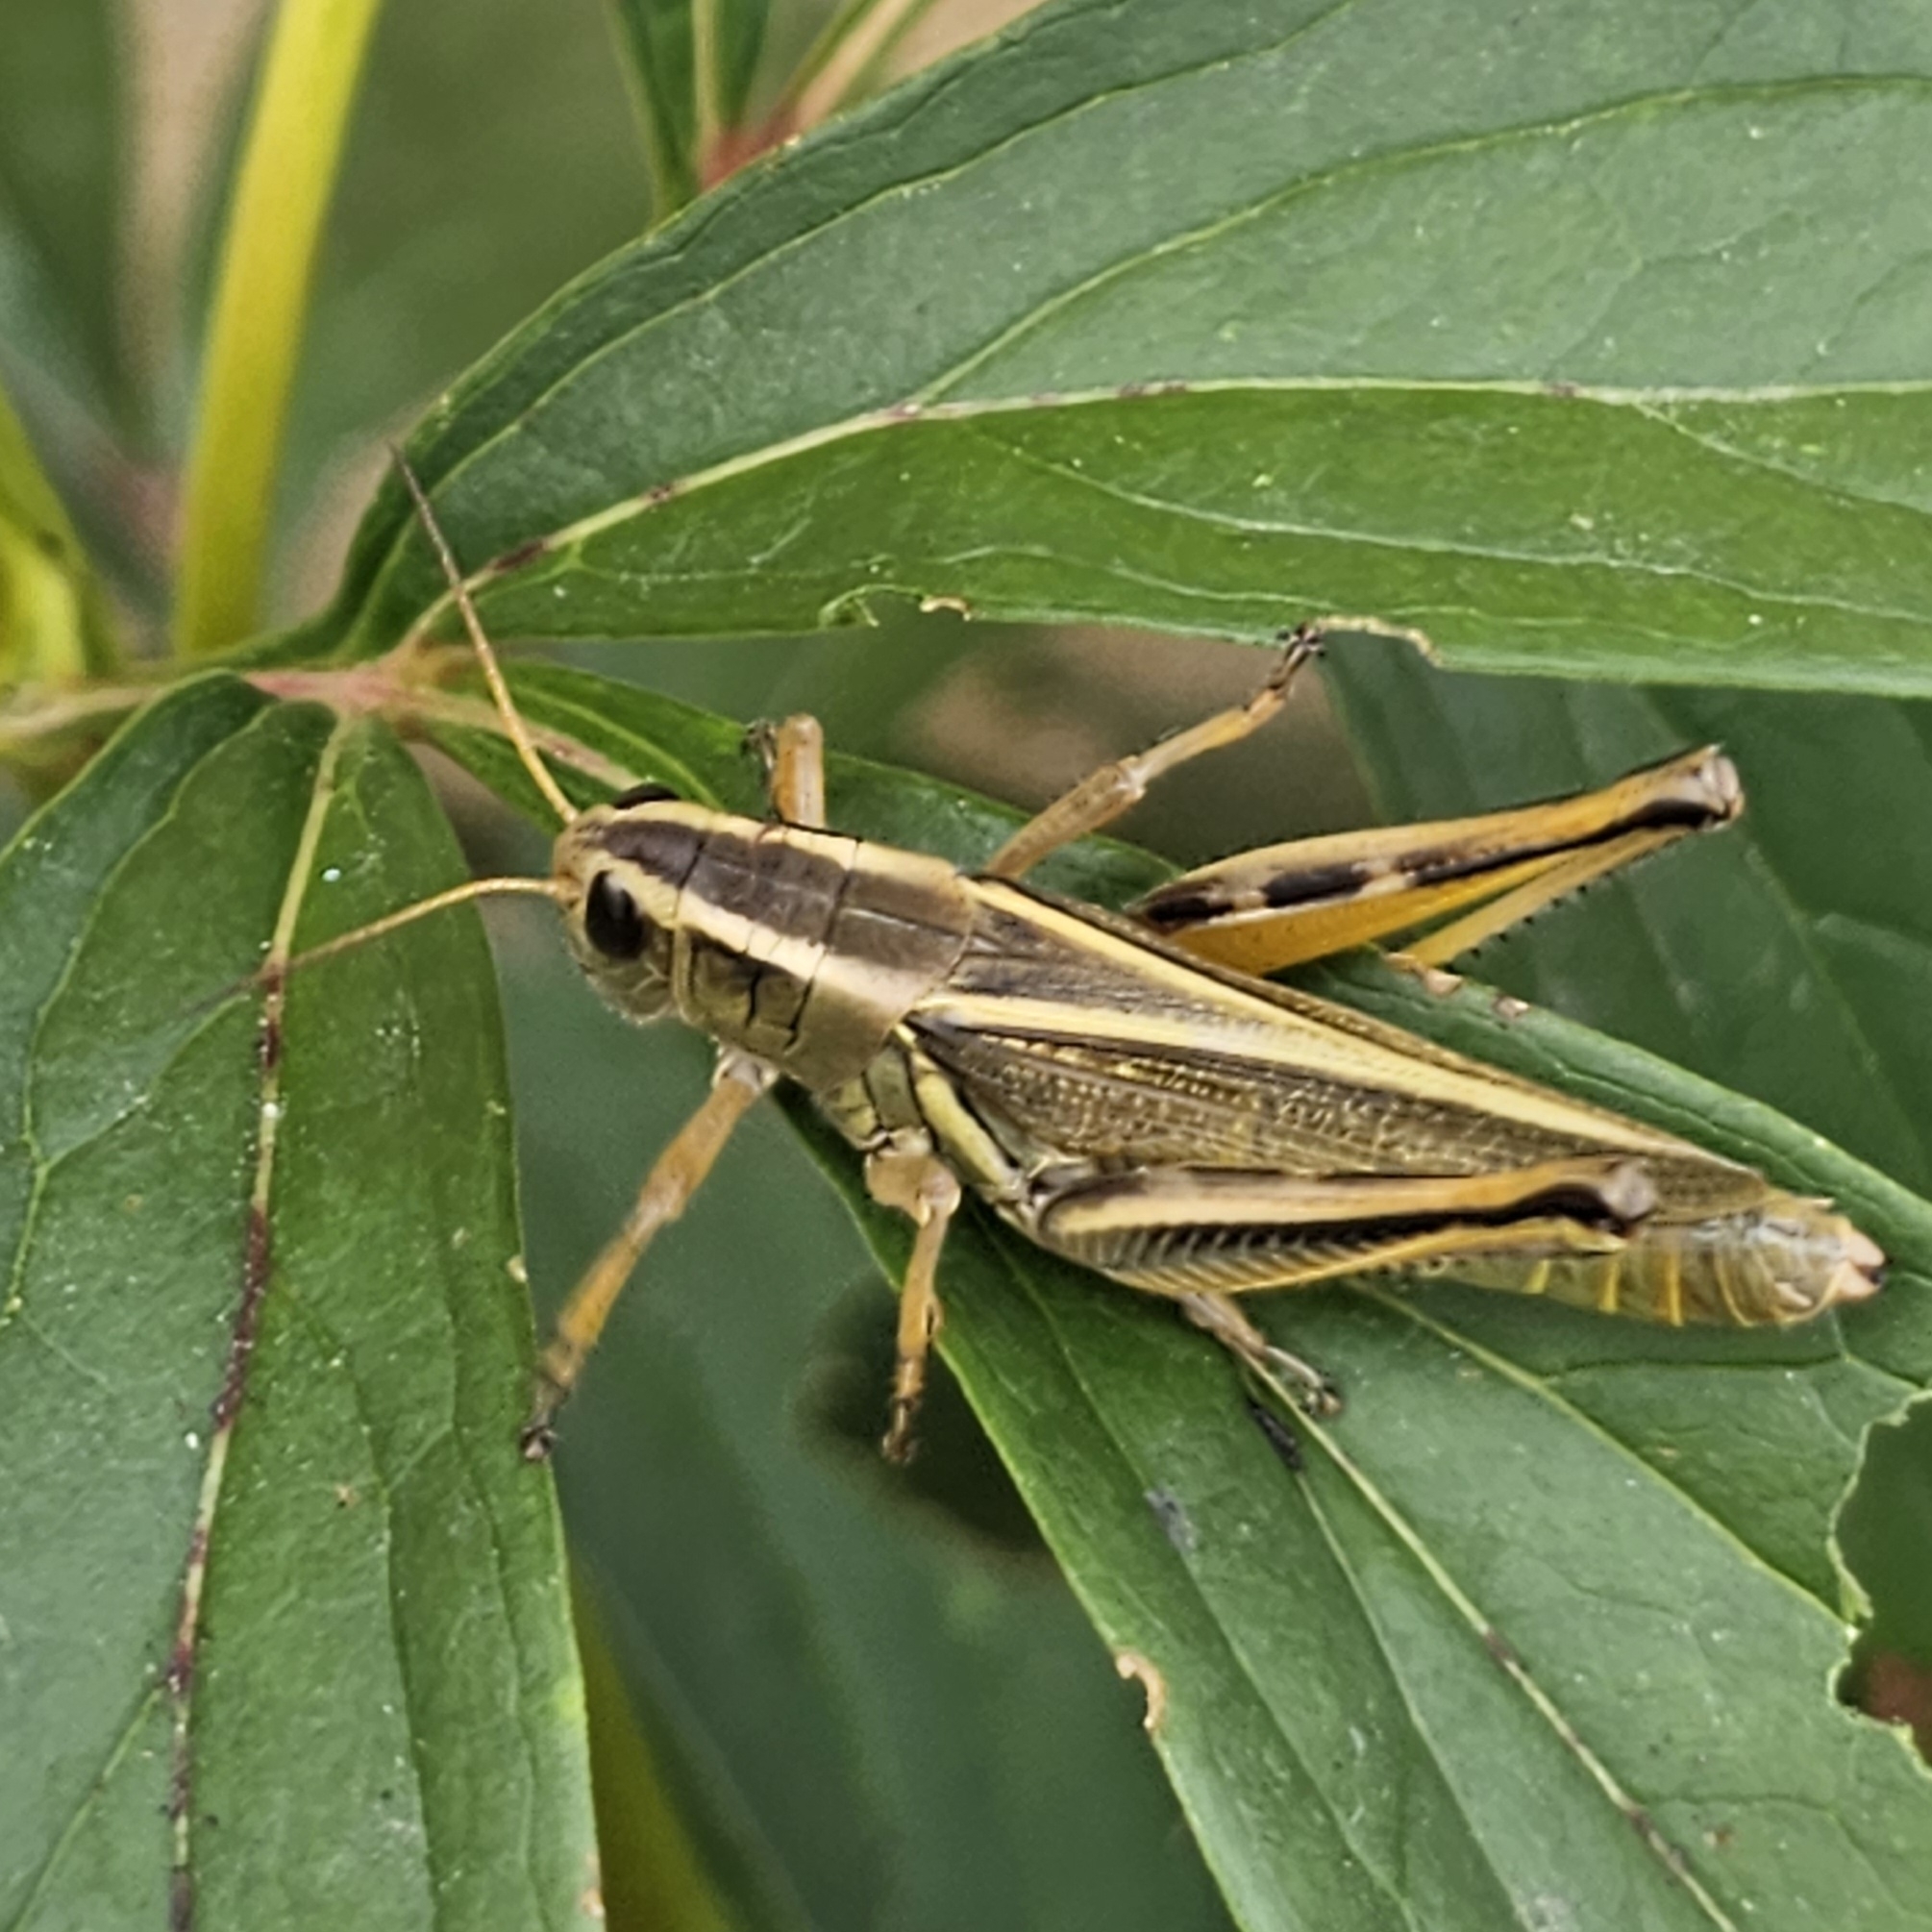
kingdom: Animalia
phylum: Arthropoda
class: Insecta
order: Orthoptera
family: Acrididae
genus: Melanoplus
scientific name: Melanoplus bivittatus
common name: Two-striped grasshopper
